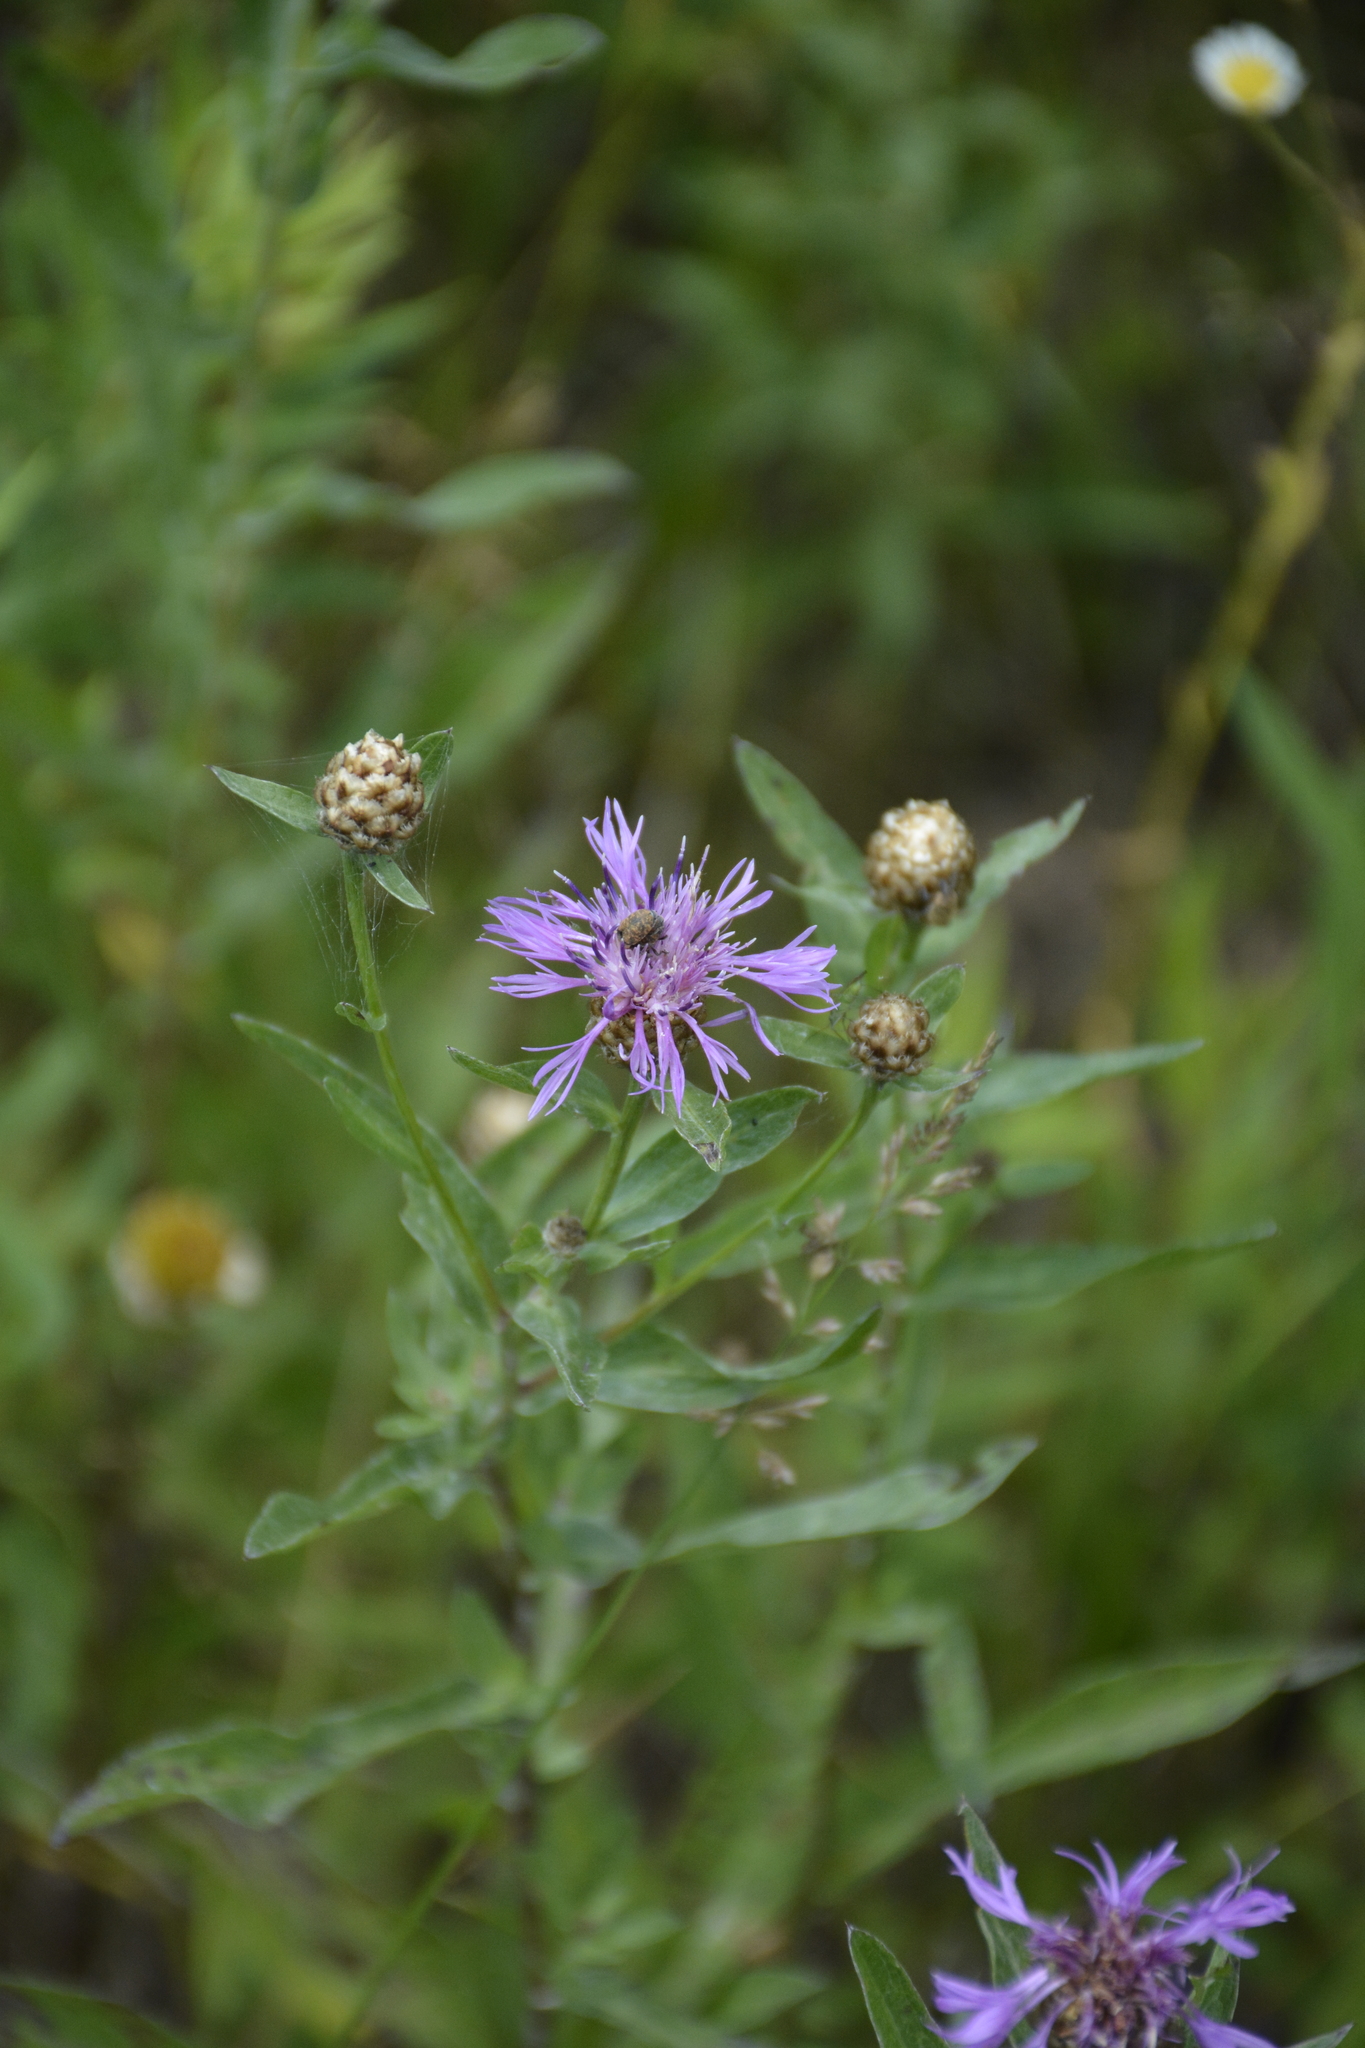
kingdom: Plantae
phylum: Tracheophyta
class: Magnoliopsida
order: Asterales
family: Asteraceae
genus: Centaurea
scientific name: Centaurea jacea
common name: Brown knapweed
